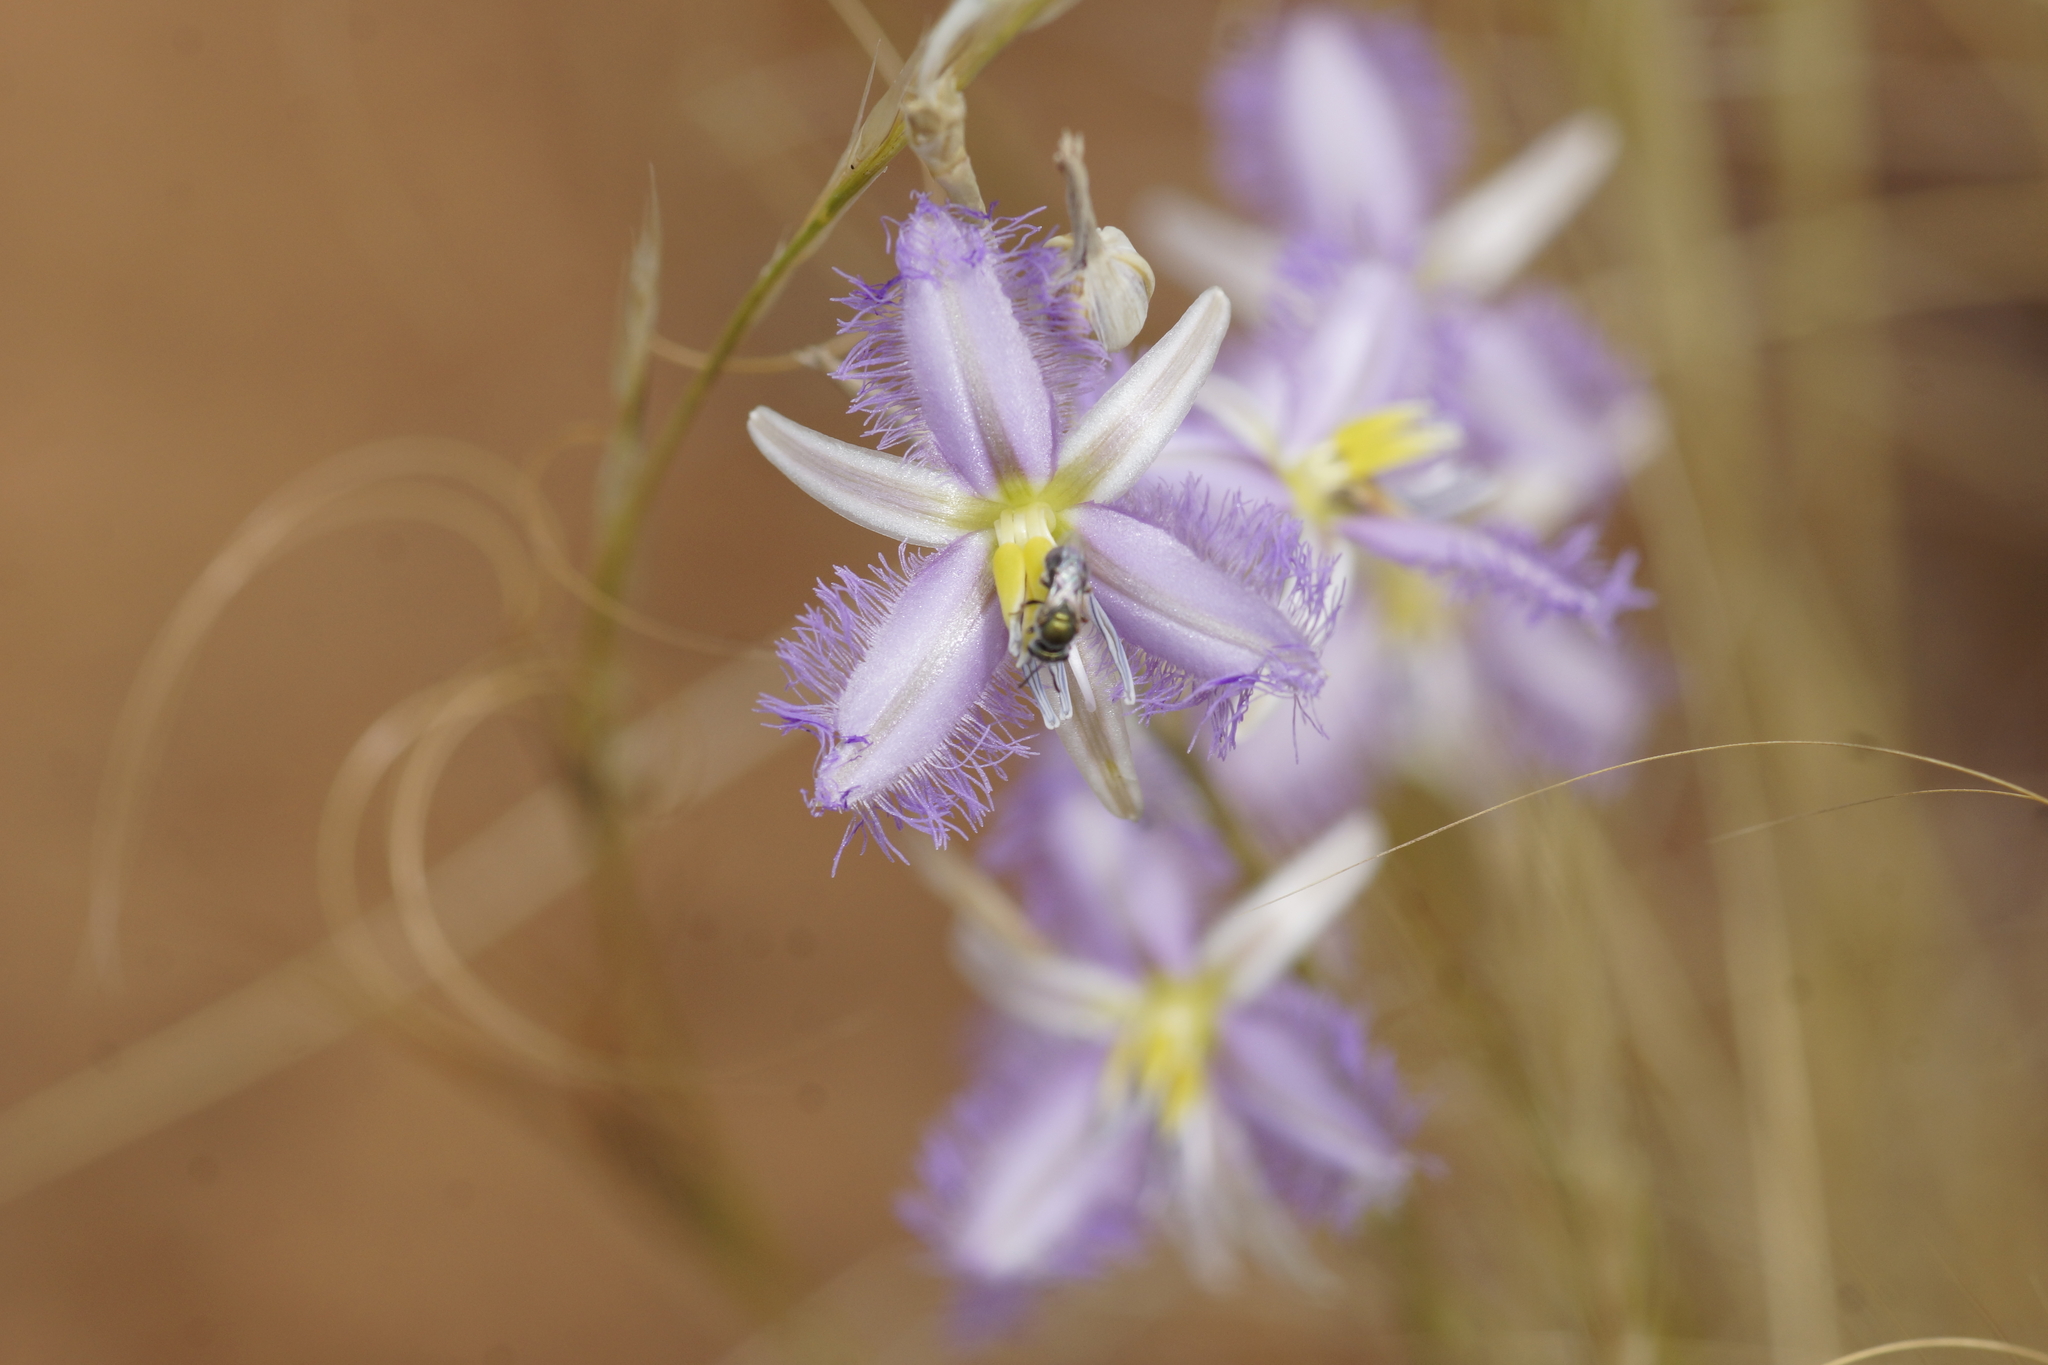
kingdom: Plantae
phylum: Tracheophyta
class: Liliopsida
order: Asparagales
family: Asparagaceae
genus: Thysanotus
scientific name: Thysanotus baueri
